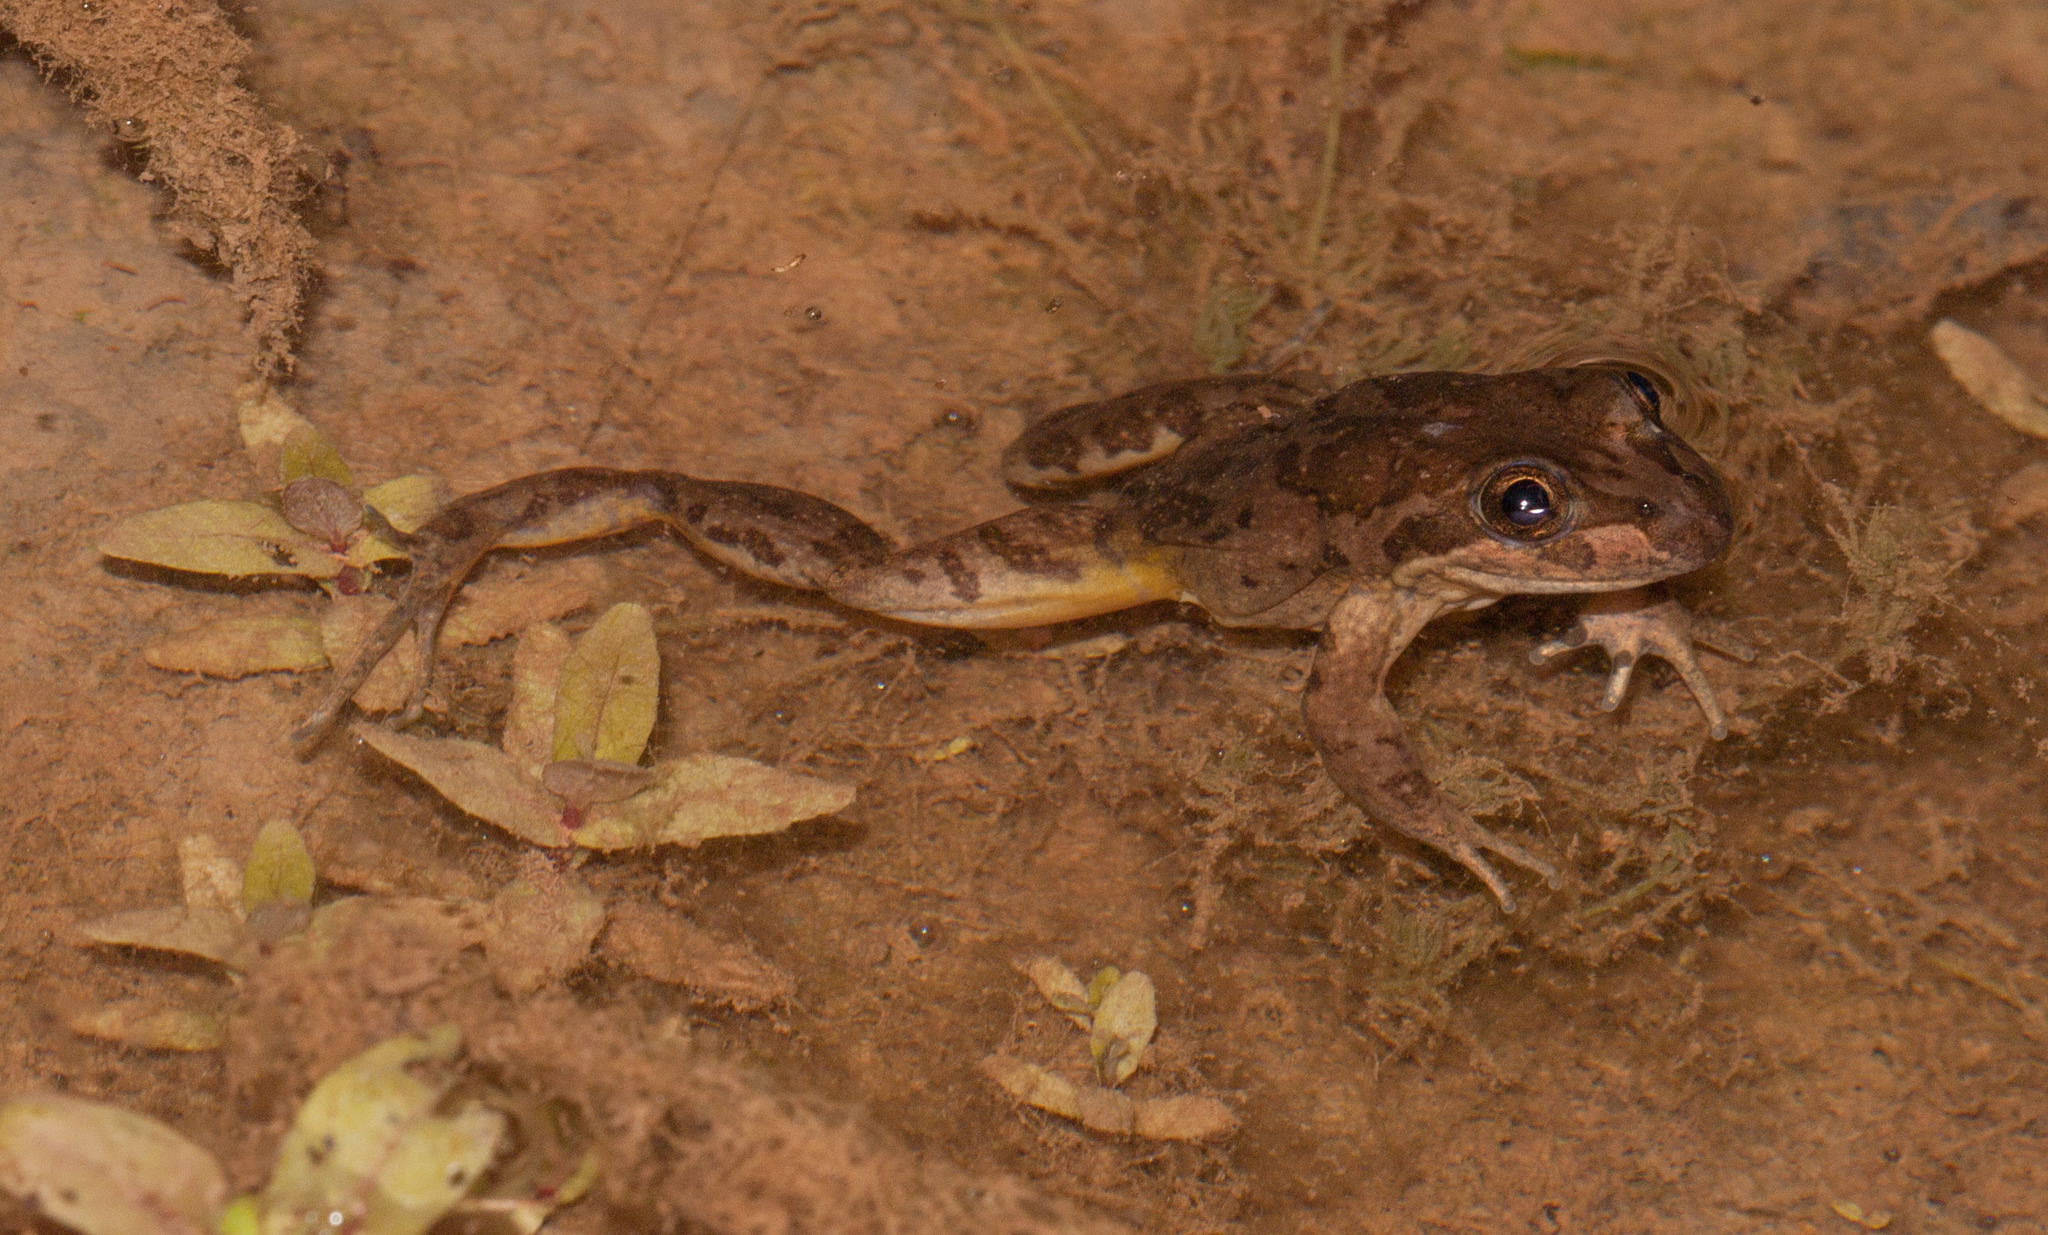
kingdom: Animalia
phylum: Chordata
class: Amphibia
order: Anura
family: Limnodynastidae
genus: Limnodynastes
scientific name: Limnodynastes tasmaniensis
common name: Spotted marsh frog
